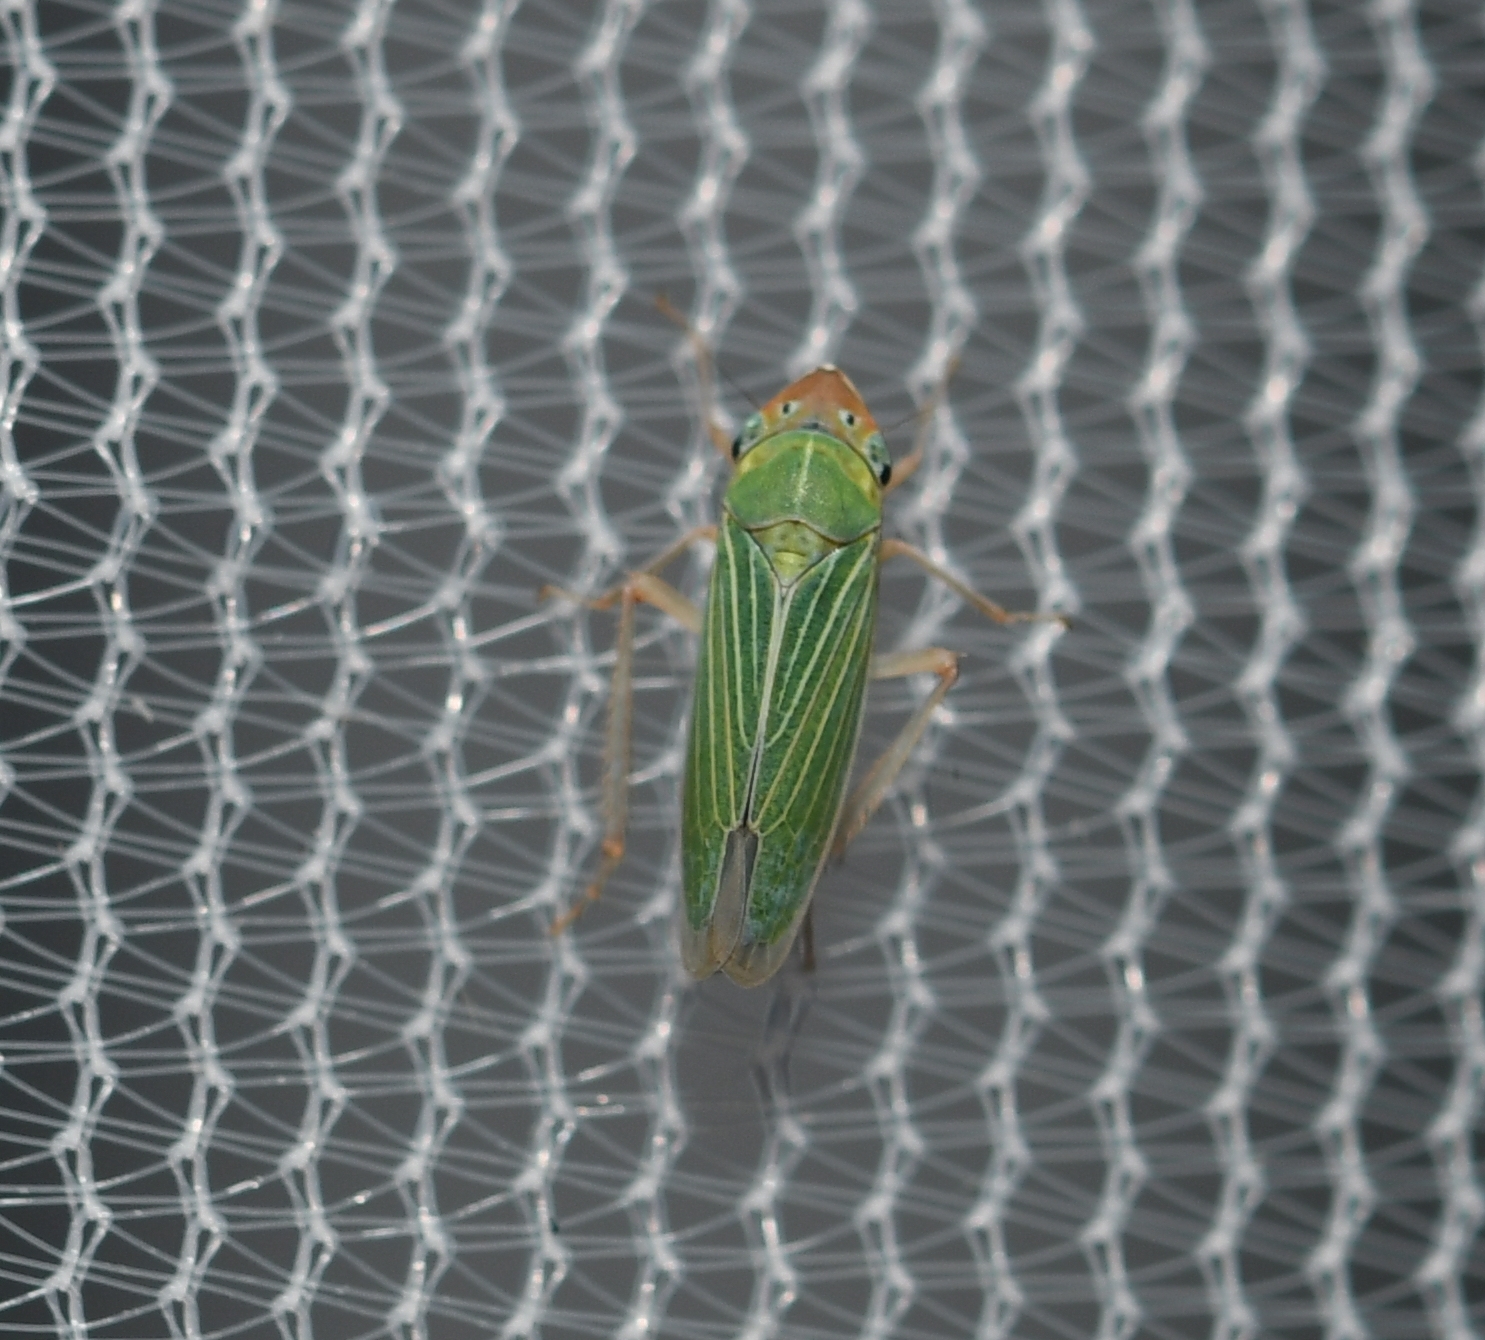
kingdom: Animalia
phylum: Arthropoda
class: Insecta
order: Hemiptera
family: Cicadellidae
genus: Xyphon
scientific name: Xyphon nudum
